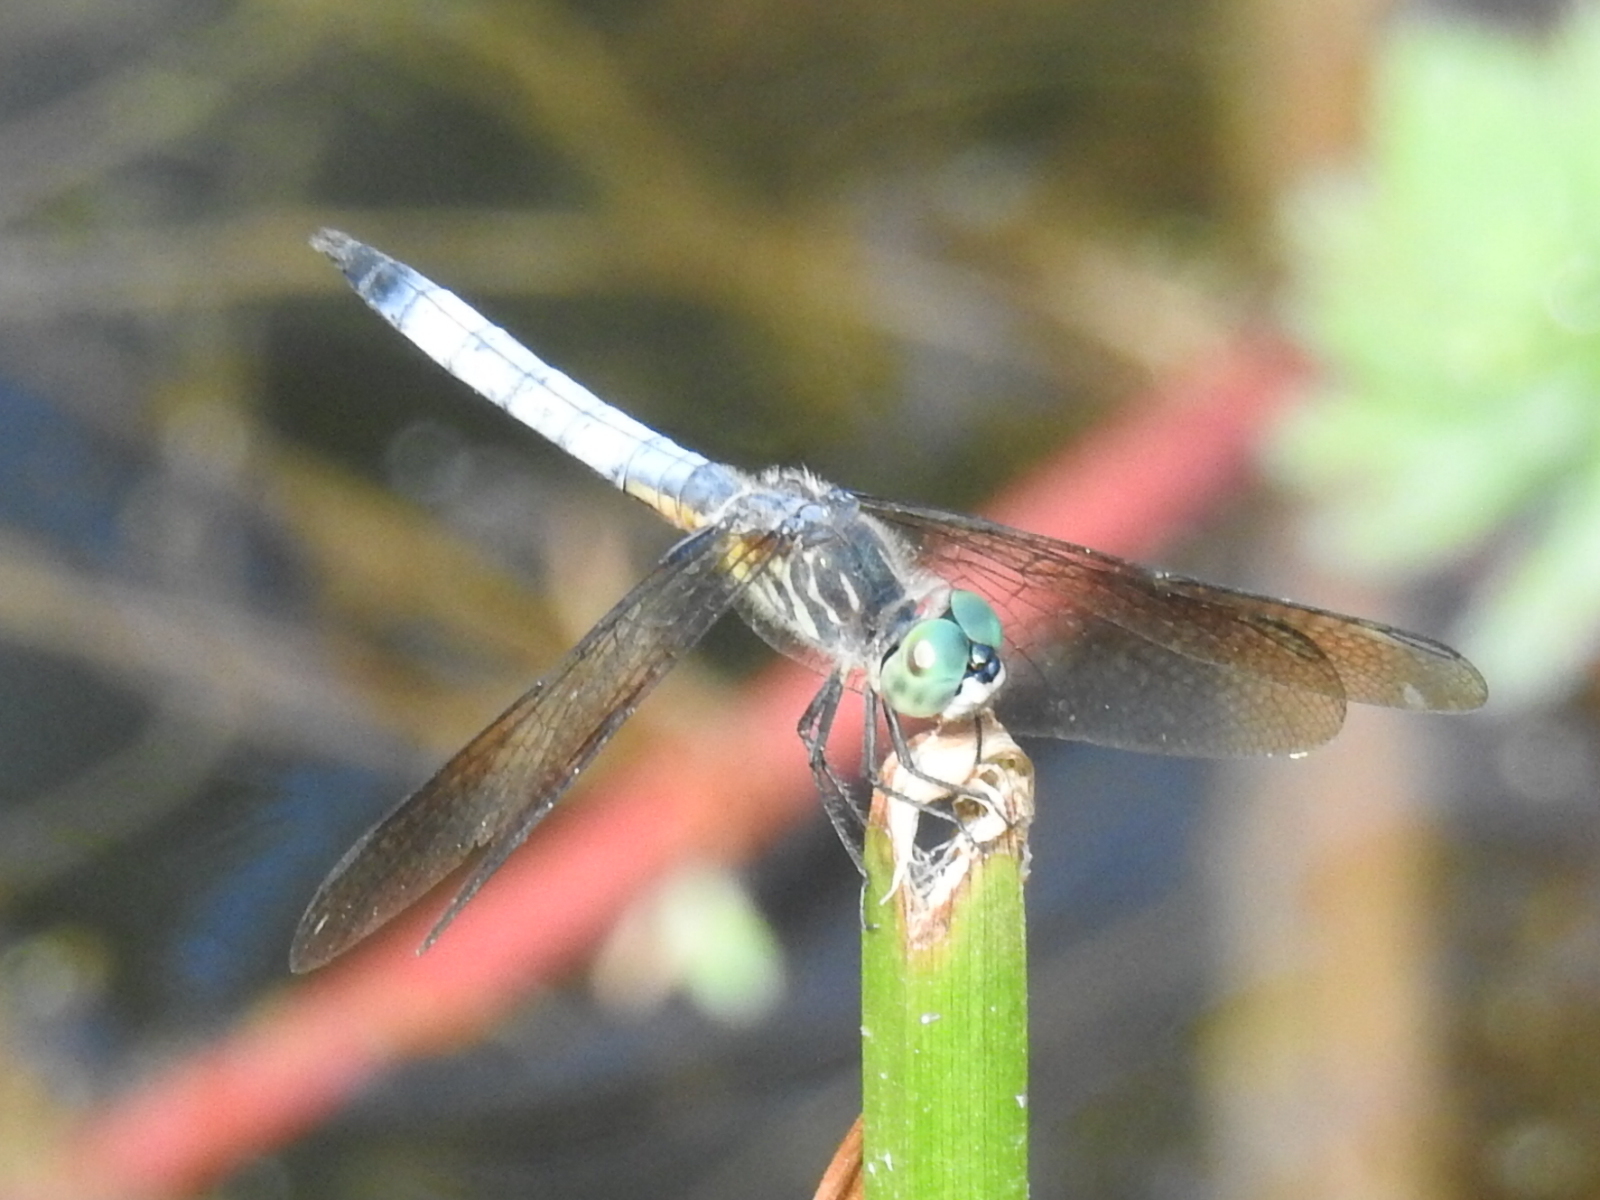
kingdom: Animalia
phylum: Arthropoda
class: Insecta
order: Odonata
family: Libellulidae
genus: Pachydiplax
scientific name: Pachydiplax longipennis
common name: Blue dasher
